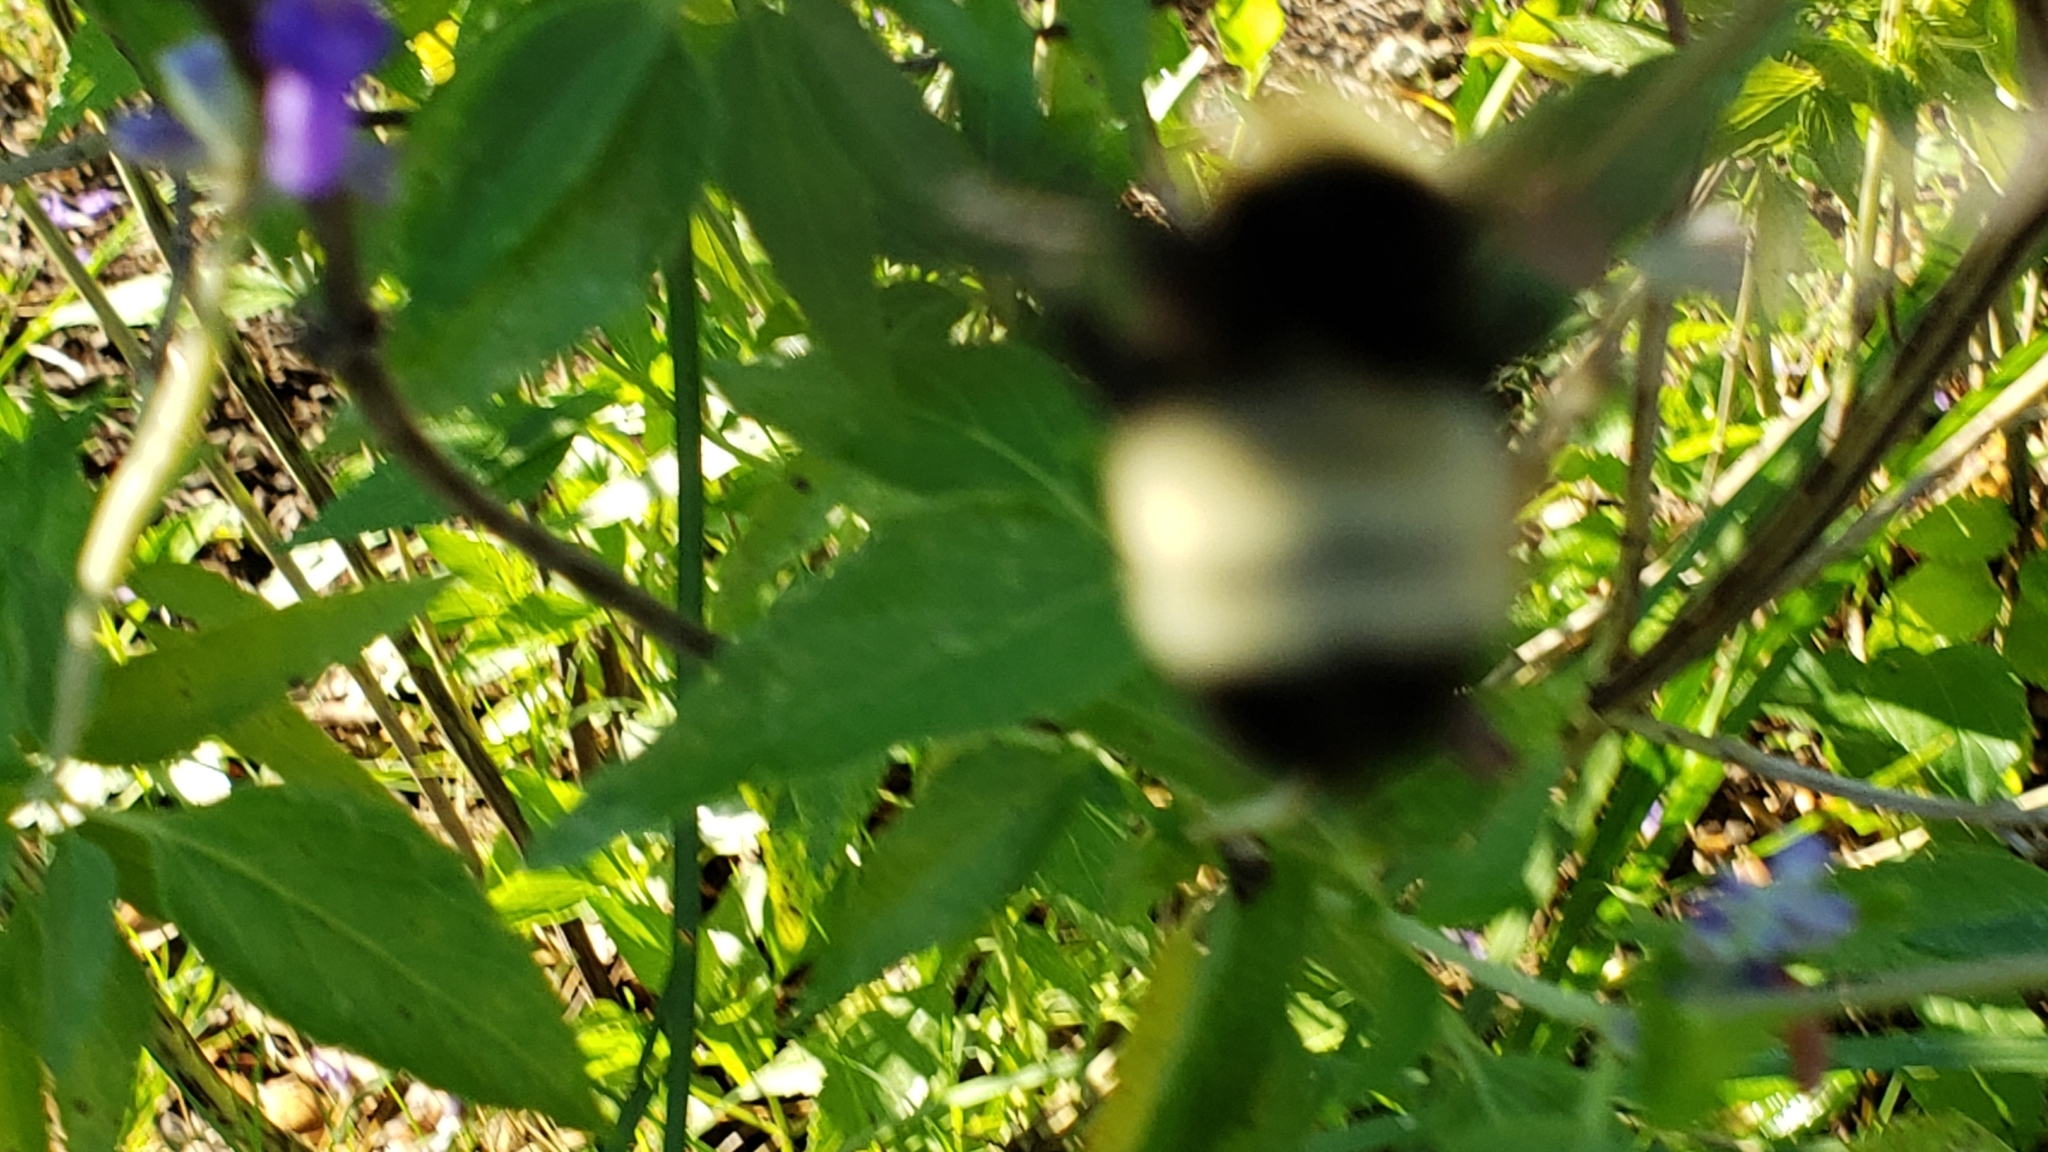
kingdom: Animalia
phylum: Arthropoda
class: Insecta
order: Hymenoptera
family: Apidae
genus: Bombus
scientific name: Bombus pensylvanicus
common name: Bumble bee
